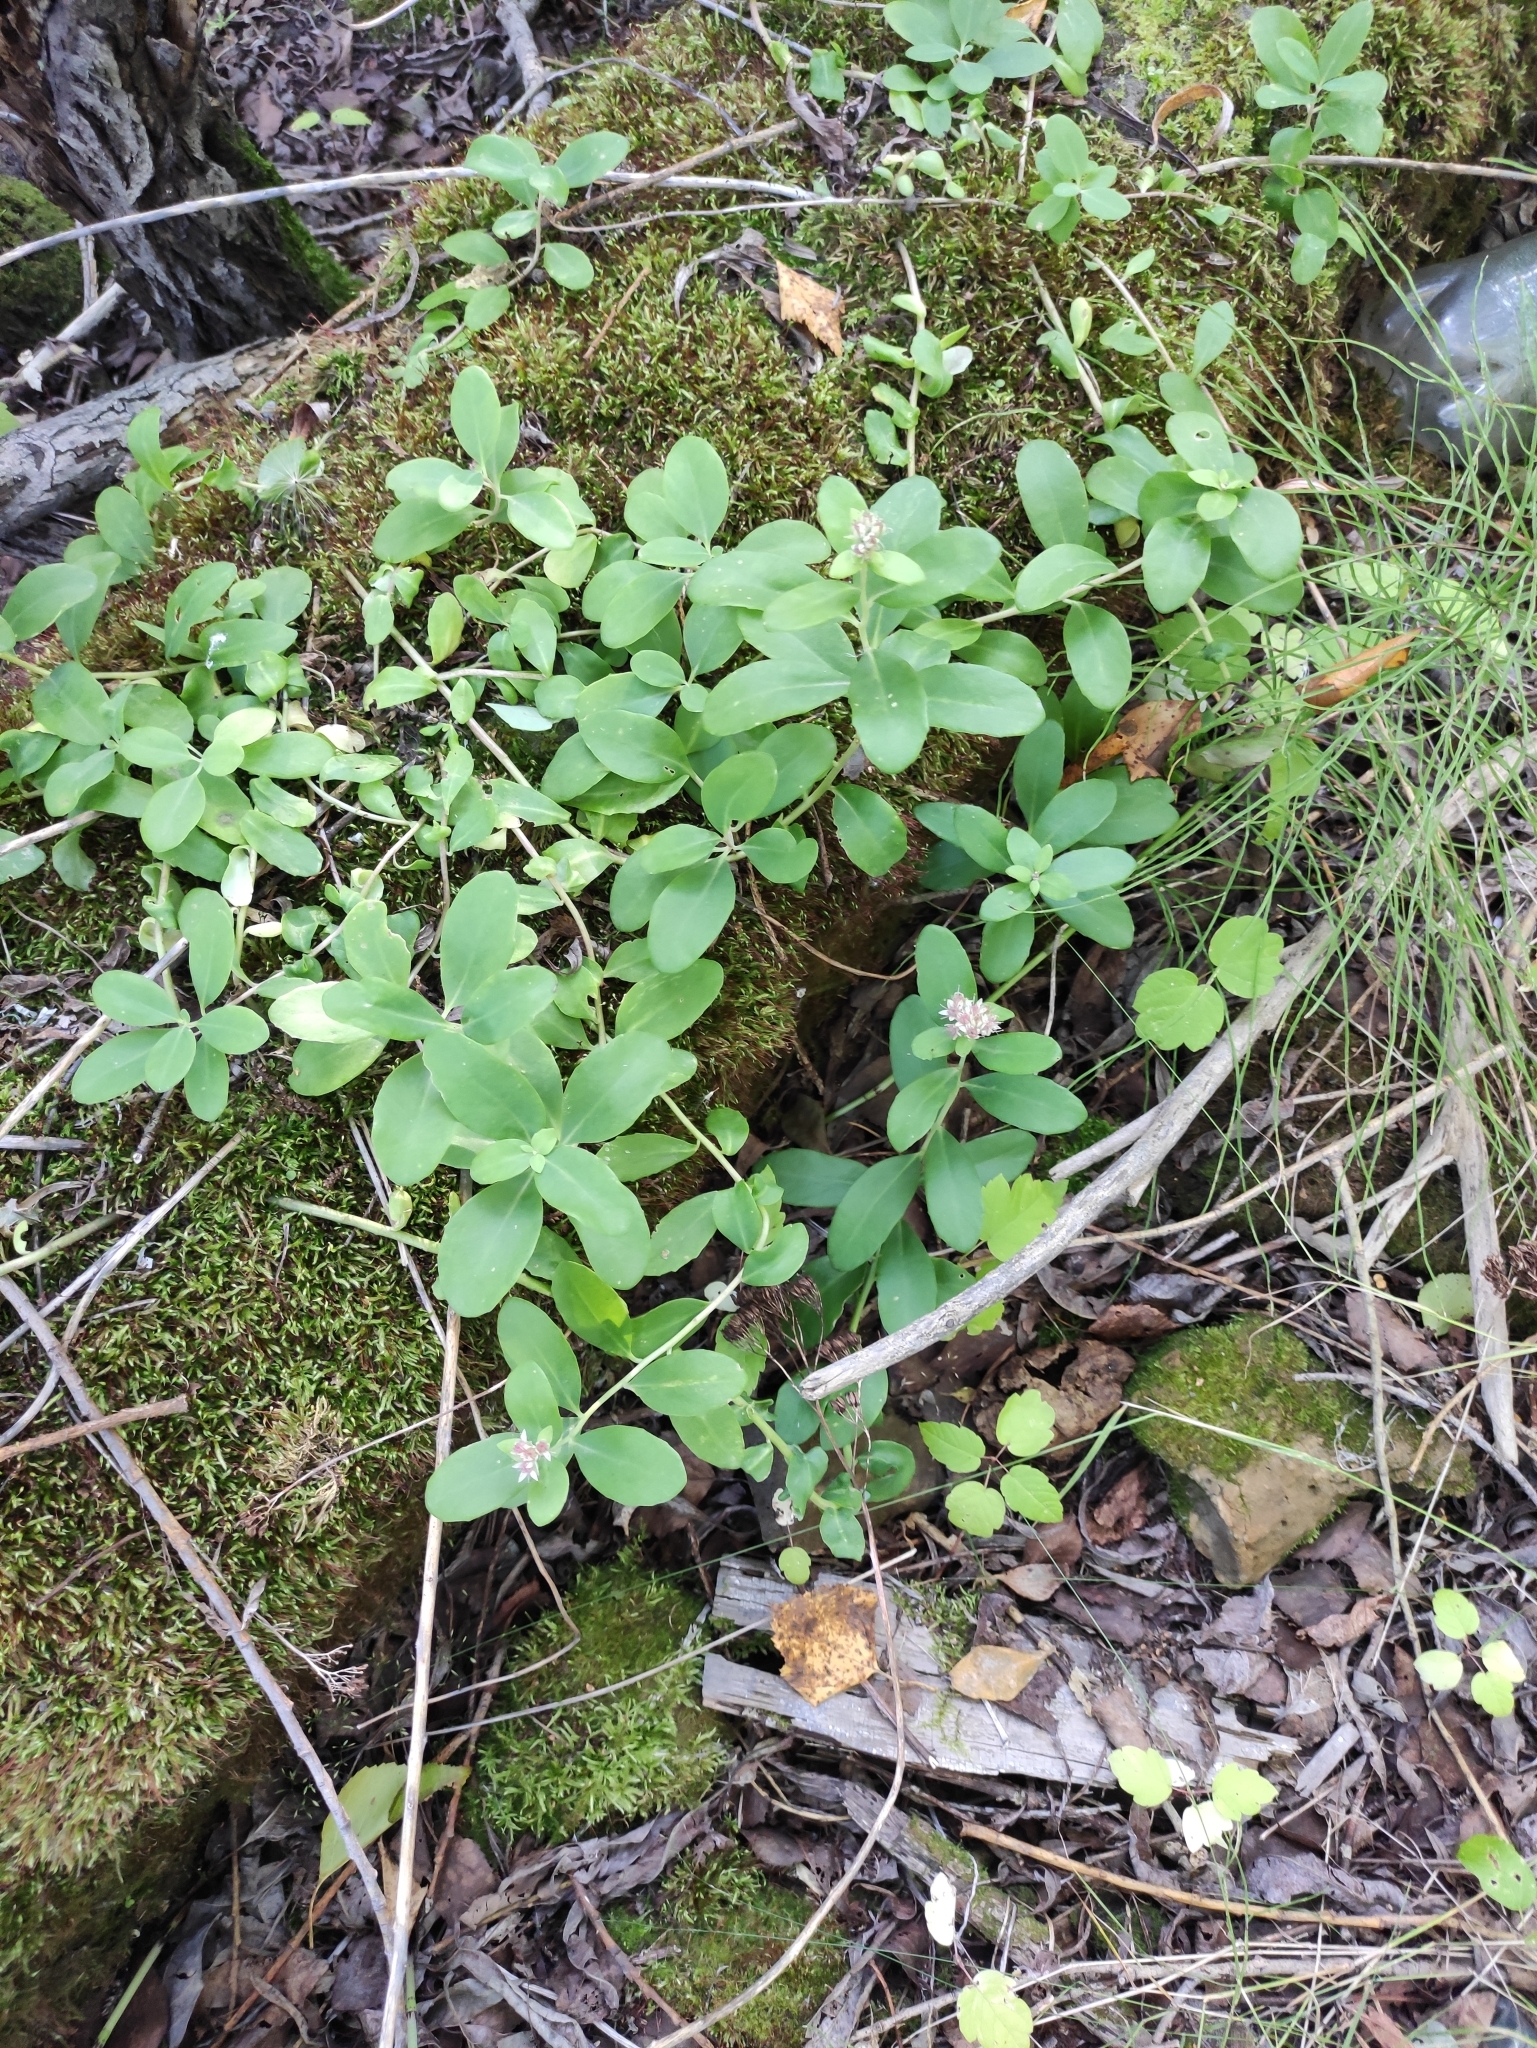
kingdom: Plantae
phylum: Tracheophyta
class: Magnoliopsida
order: Saxifragales
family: Crassulaceae
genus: Hylotelephium
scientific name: Hylotelephium telephium
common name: Live-forever
